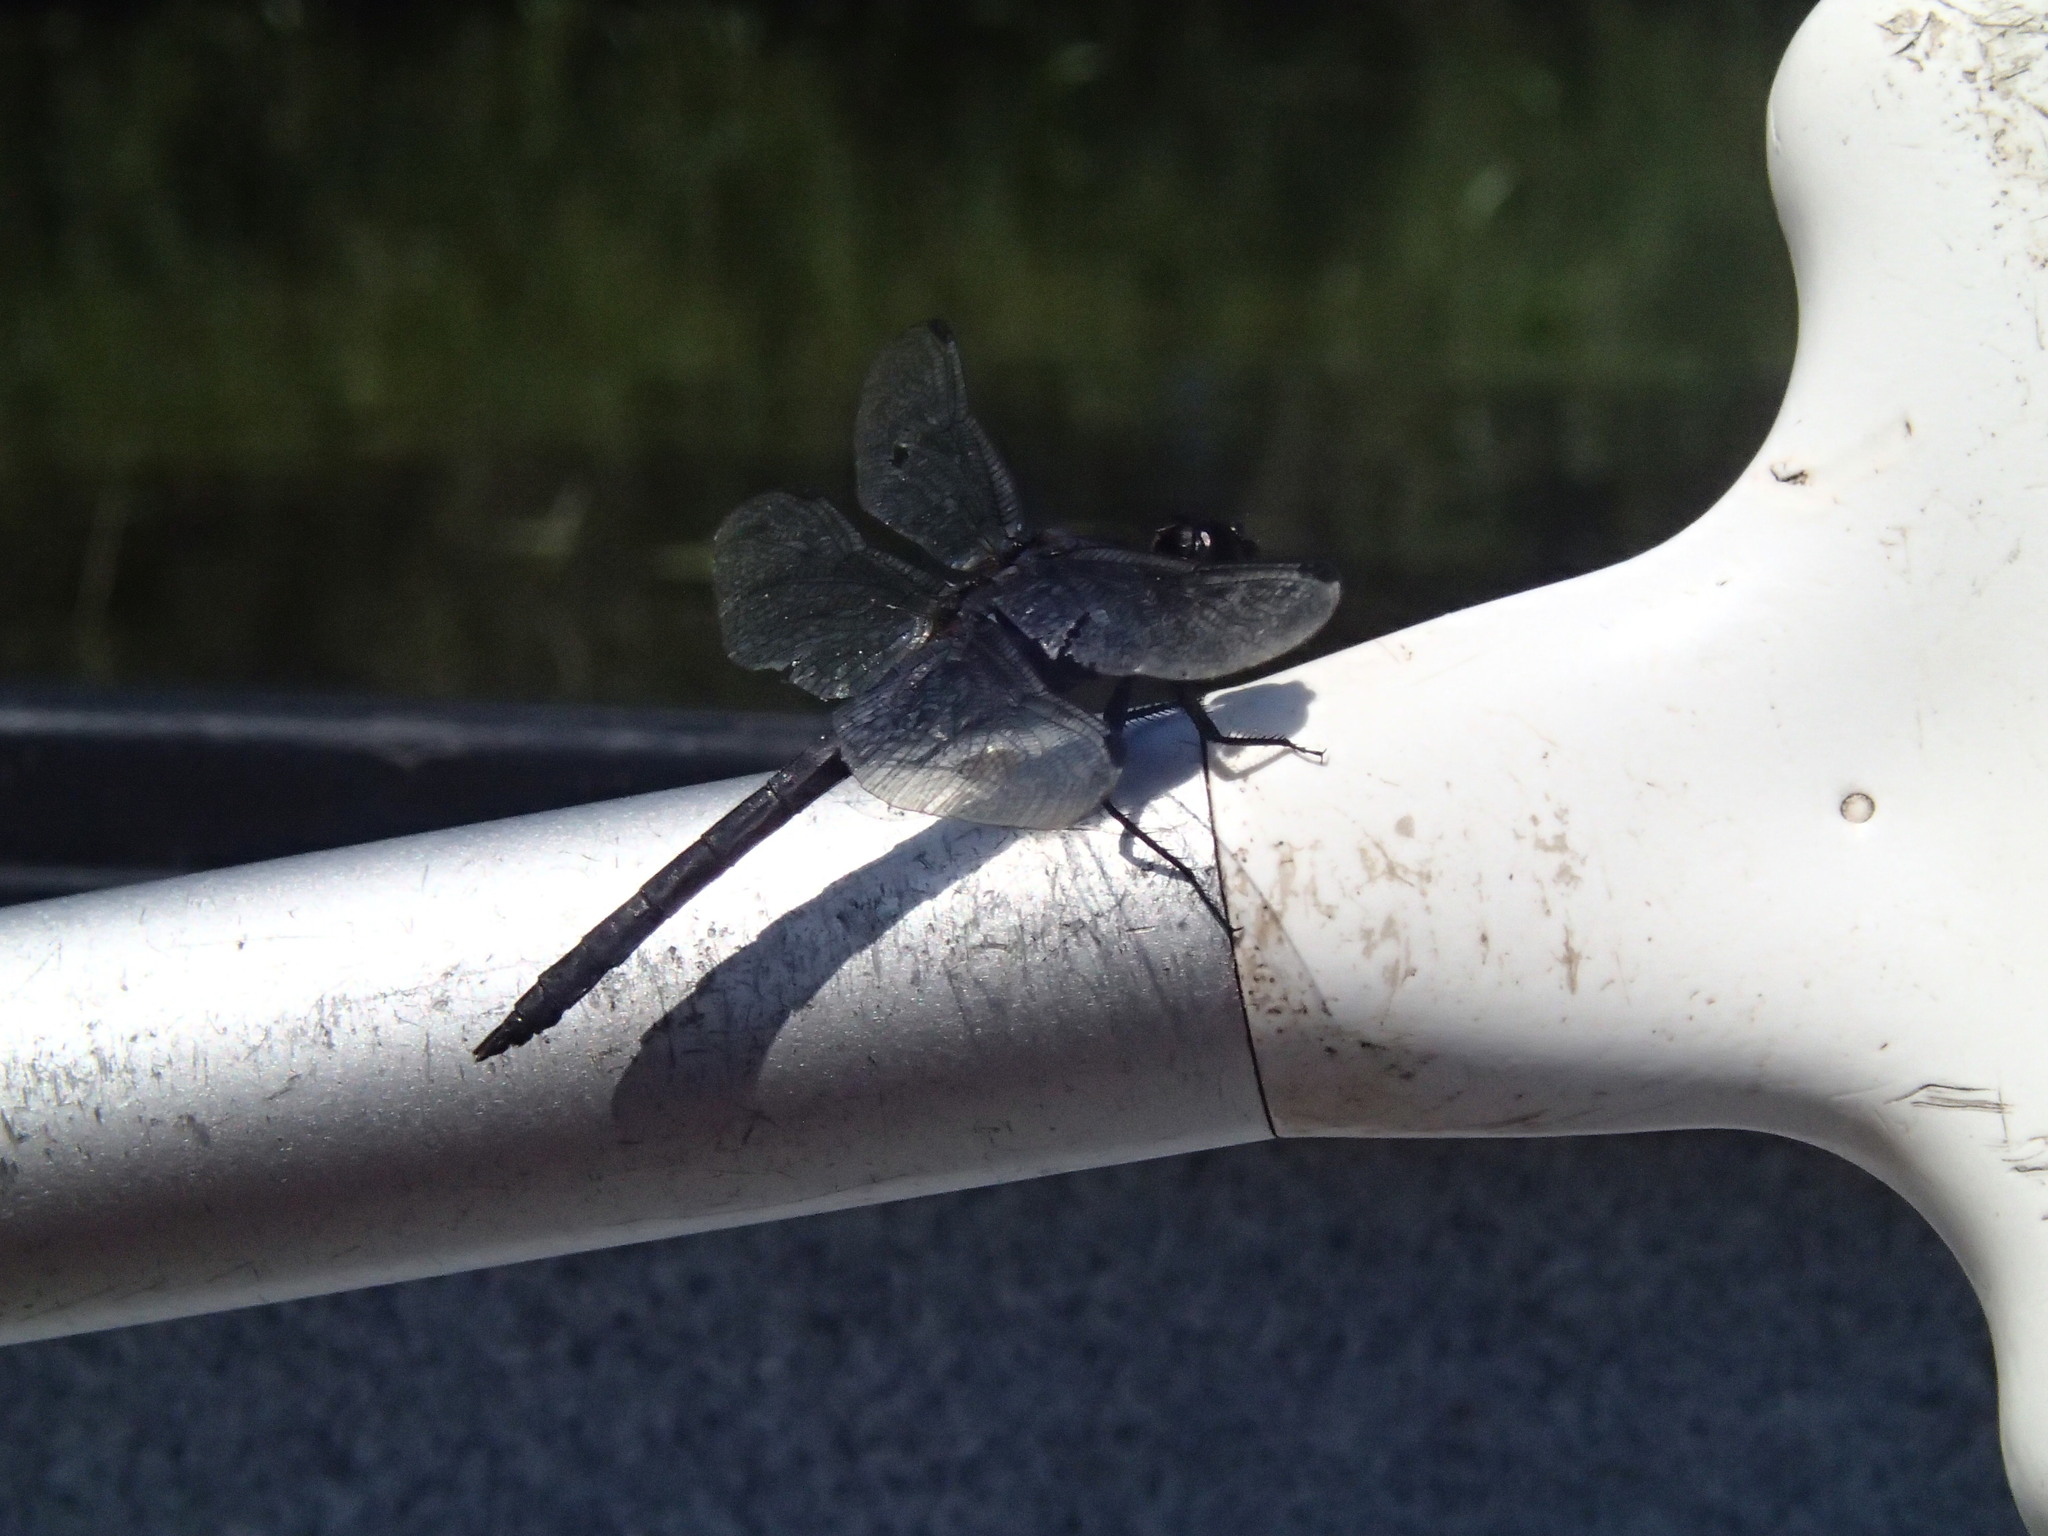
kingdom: Animalia
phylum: Arthropoda
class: Insecta
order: Odonata
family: Libellulidae
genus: Libellula
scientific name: Libellula incesta
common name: Slaty skimmer
